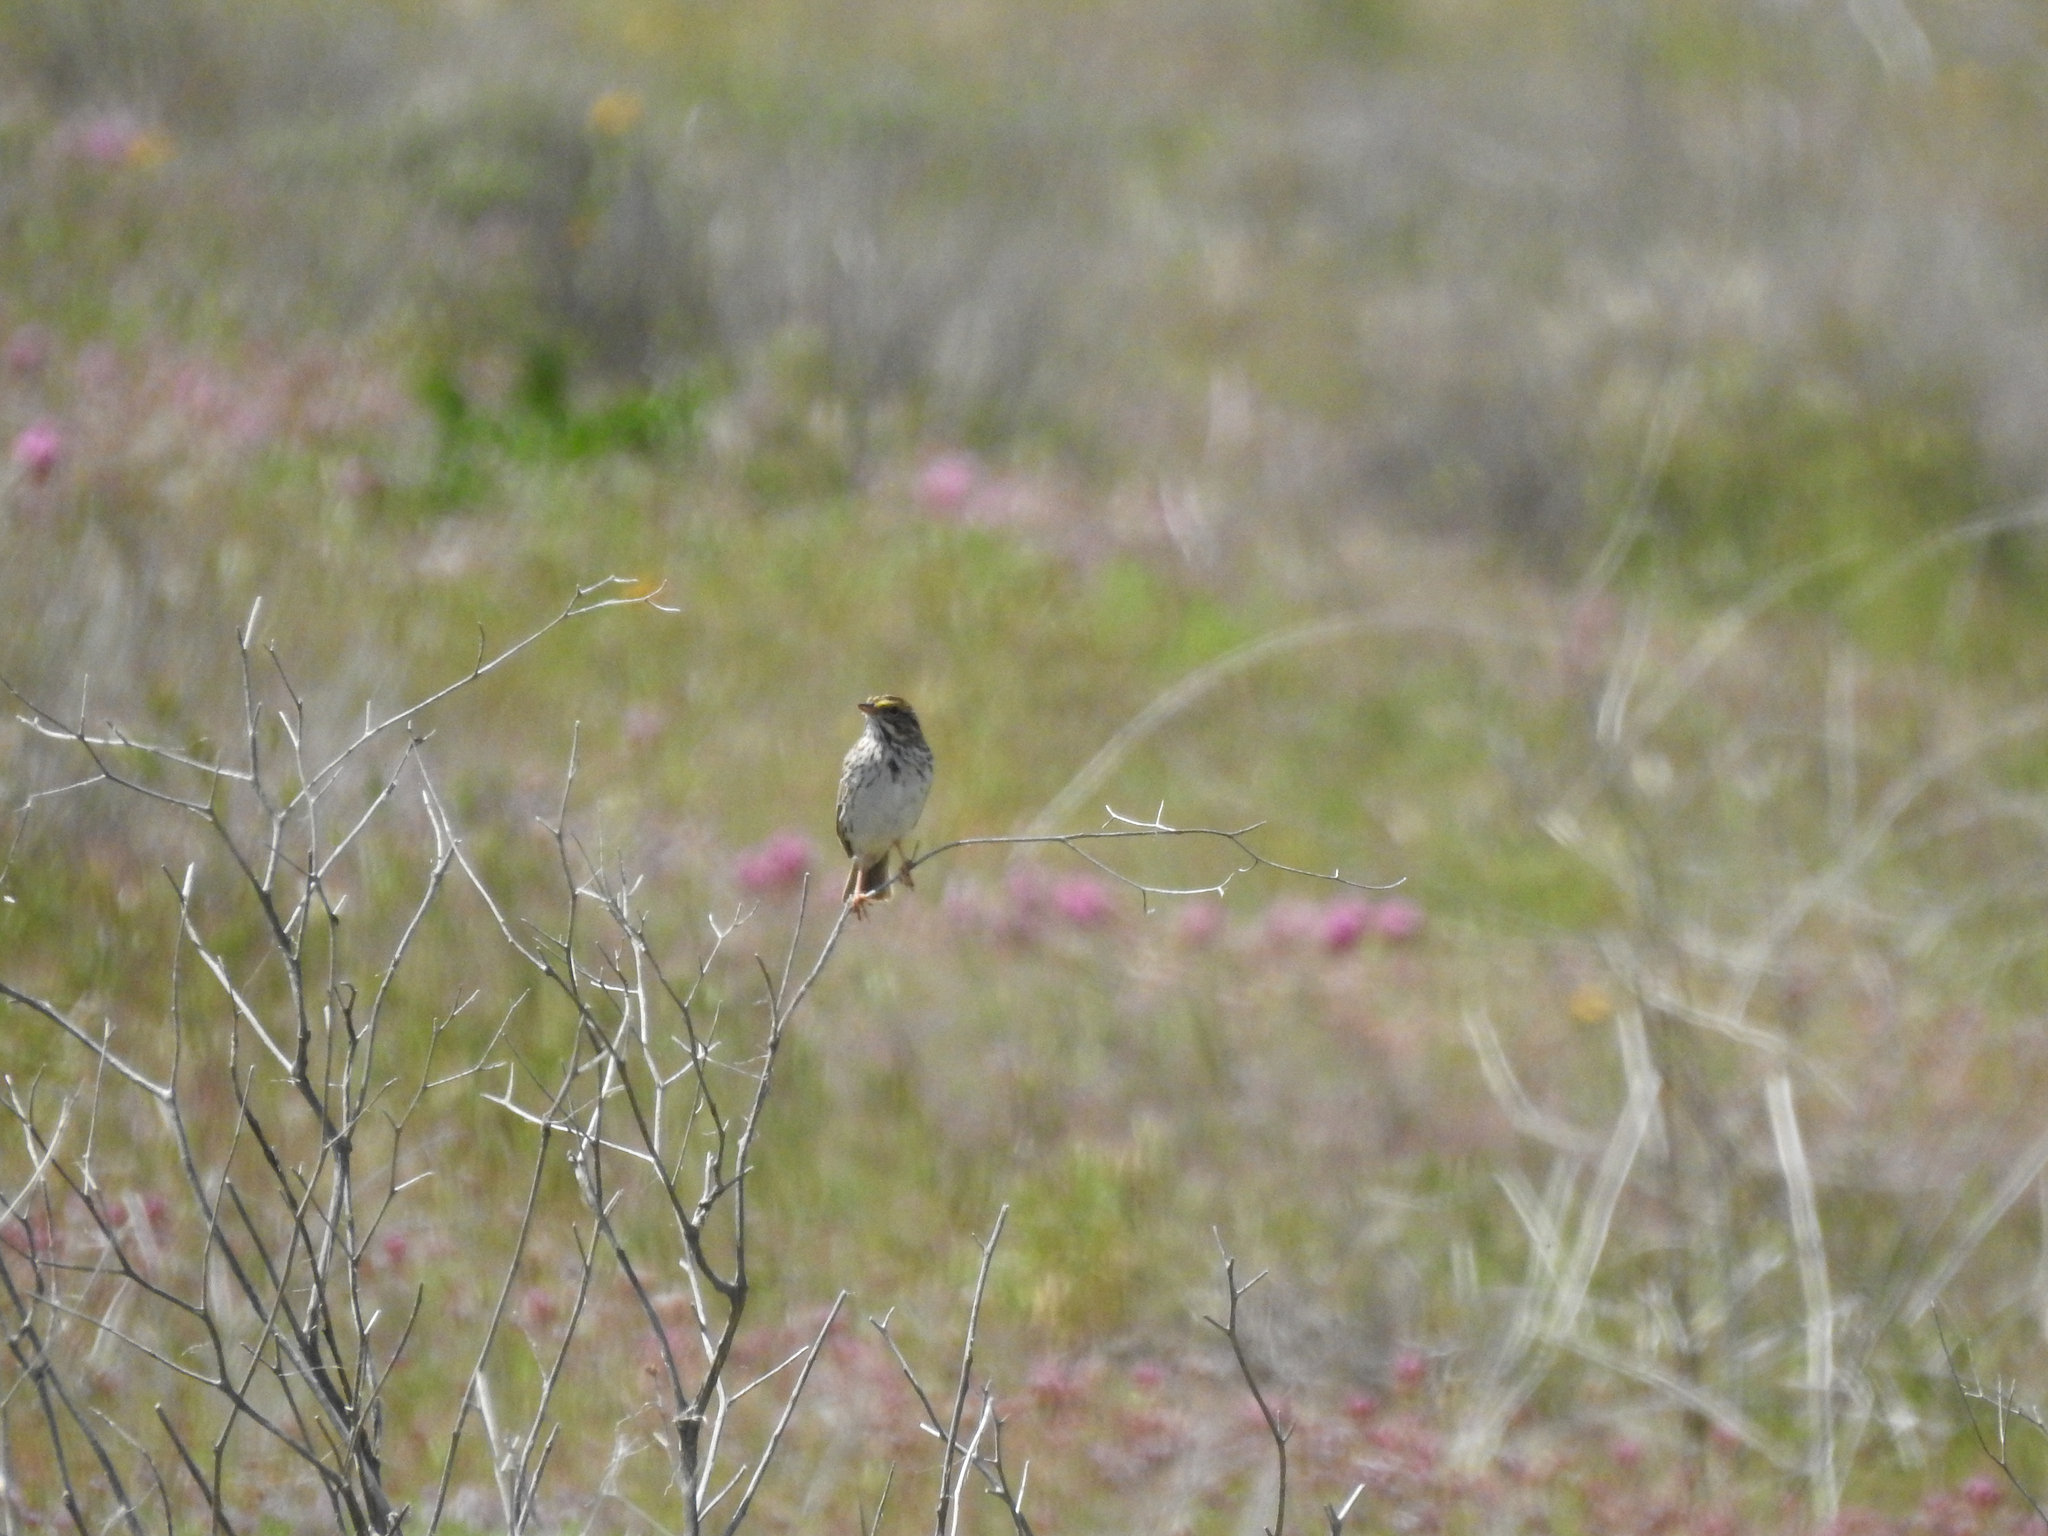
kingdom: Animalia
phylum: Chordata
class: Aves
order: Passeriformes
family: Passerellidae
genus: Passerculus
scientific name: Passerculus sandwichensis
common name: Savannah sparrow
